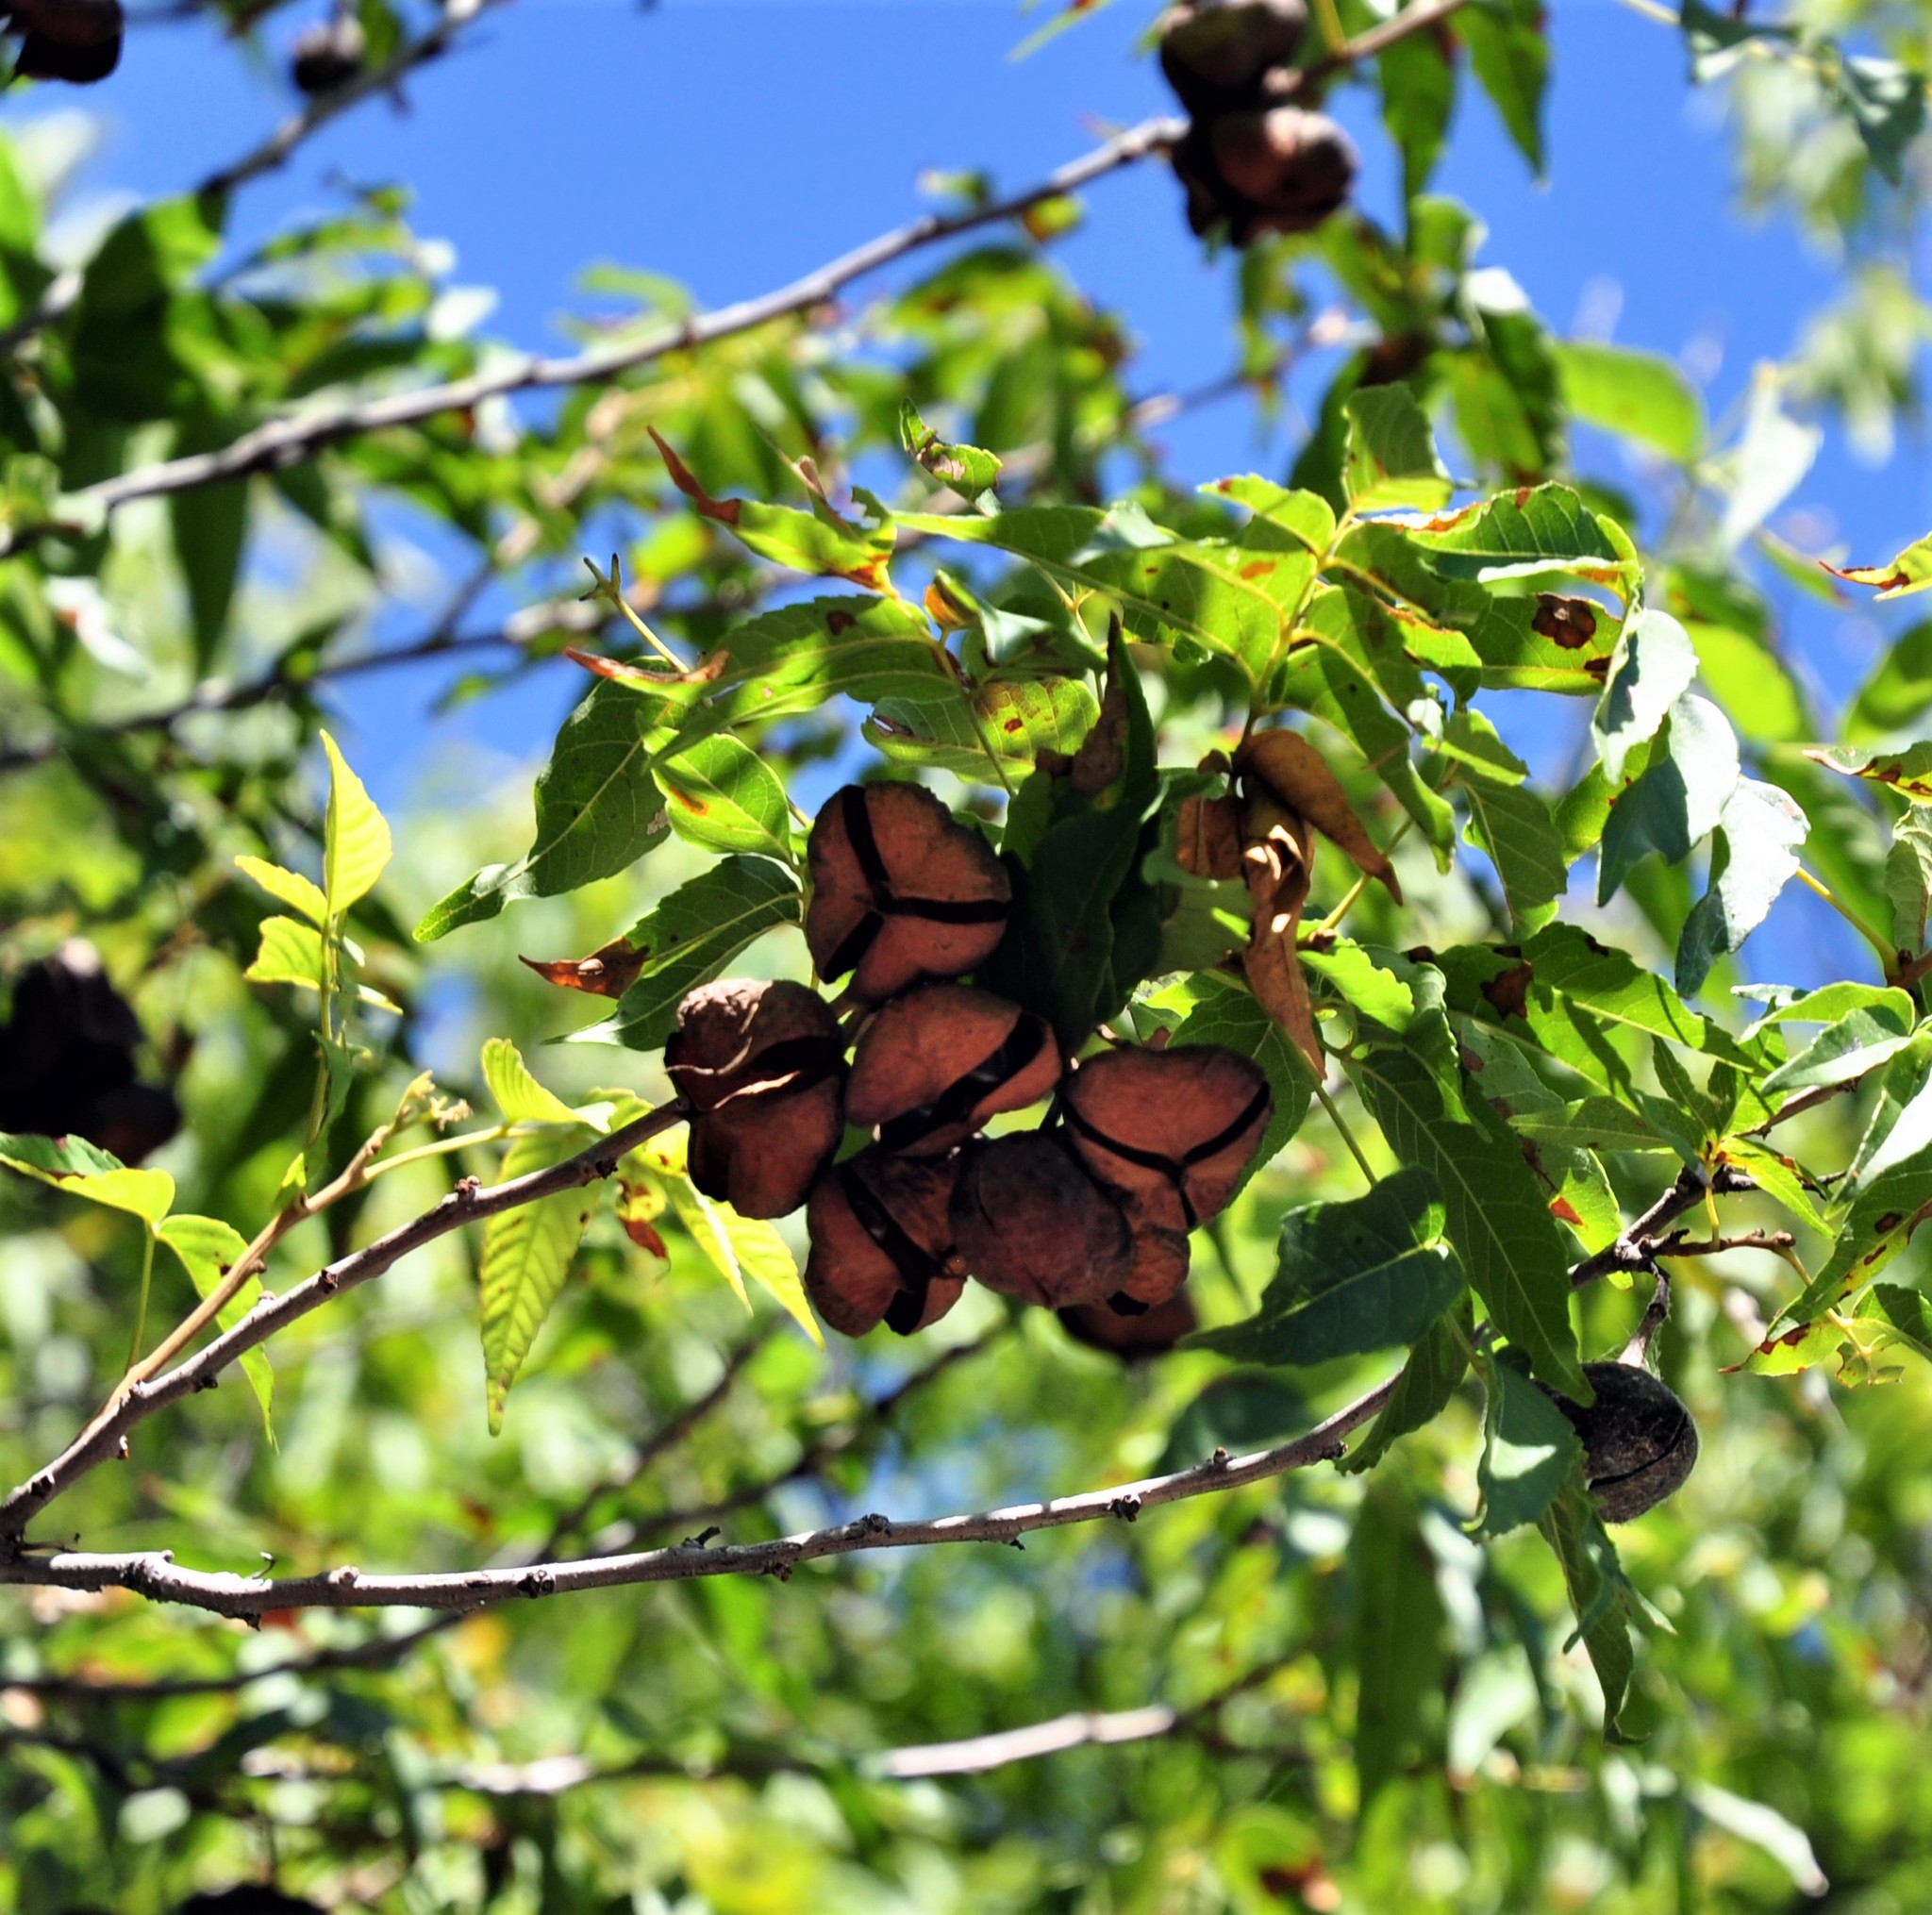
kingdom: Plantae
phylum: Tracheophyta
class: Magnoliopsida
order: Sapindales
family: Sapindaceae
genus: Ungnadia
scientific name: Ungnadia speciosa
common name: Texas-buckeye
